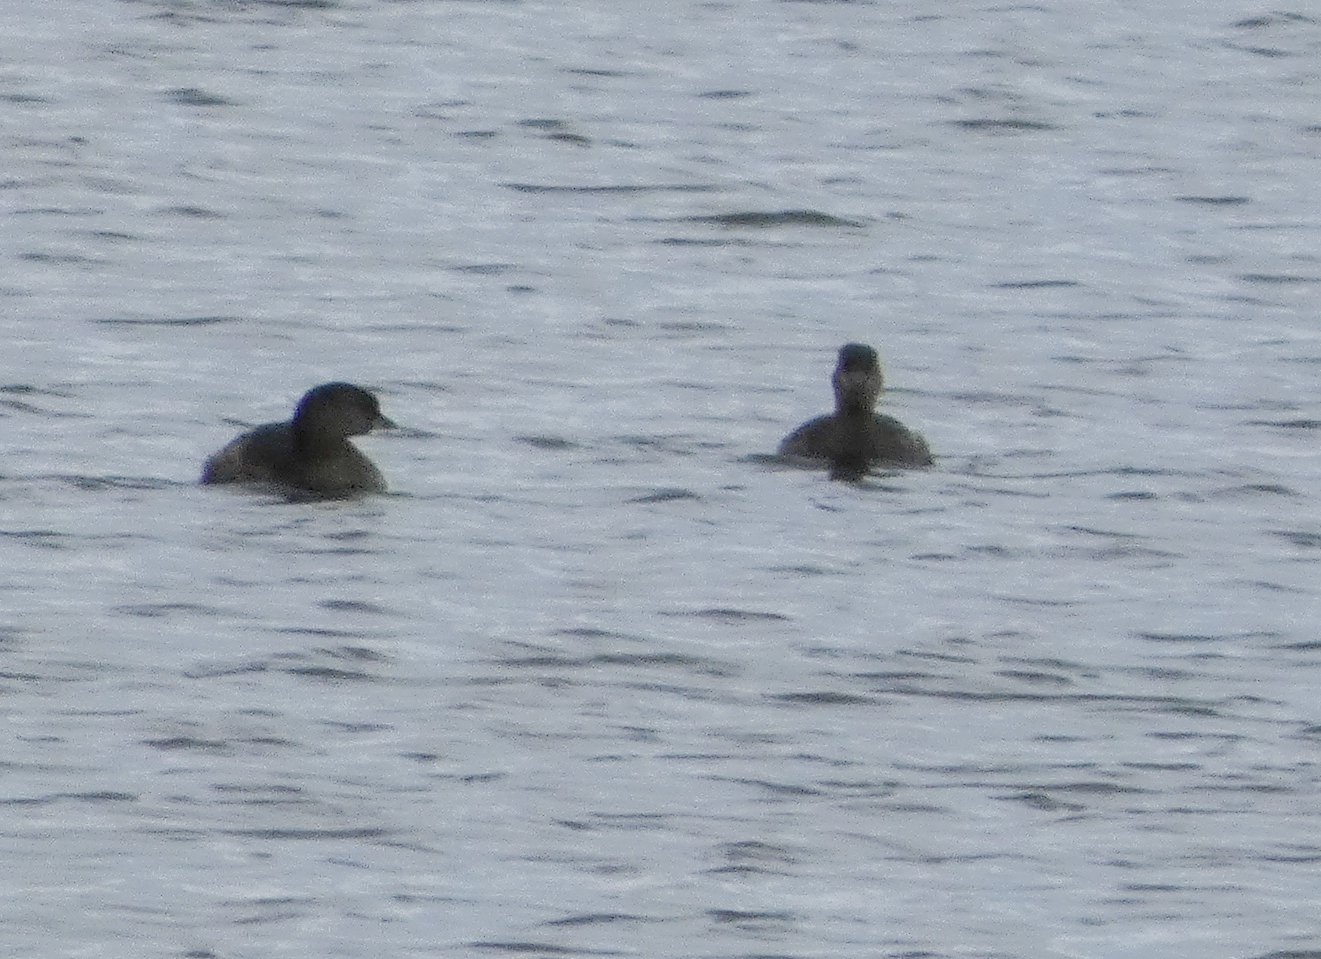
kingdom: Animalia
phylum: Chordata
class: Aves
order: Podicipediformes
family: Podicipedidae
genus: Podilymbus
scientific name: Podilymbus podiceps
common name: Pied-billed grebe
